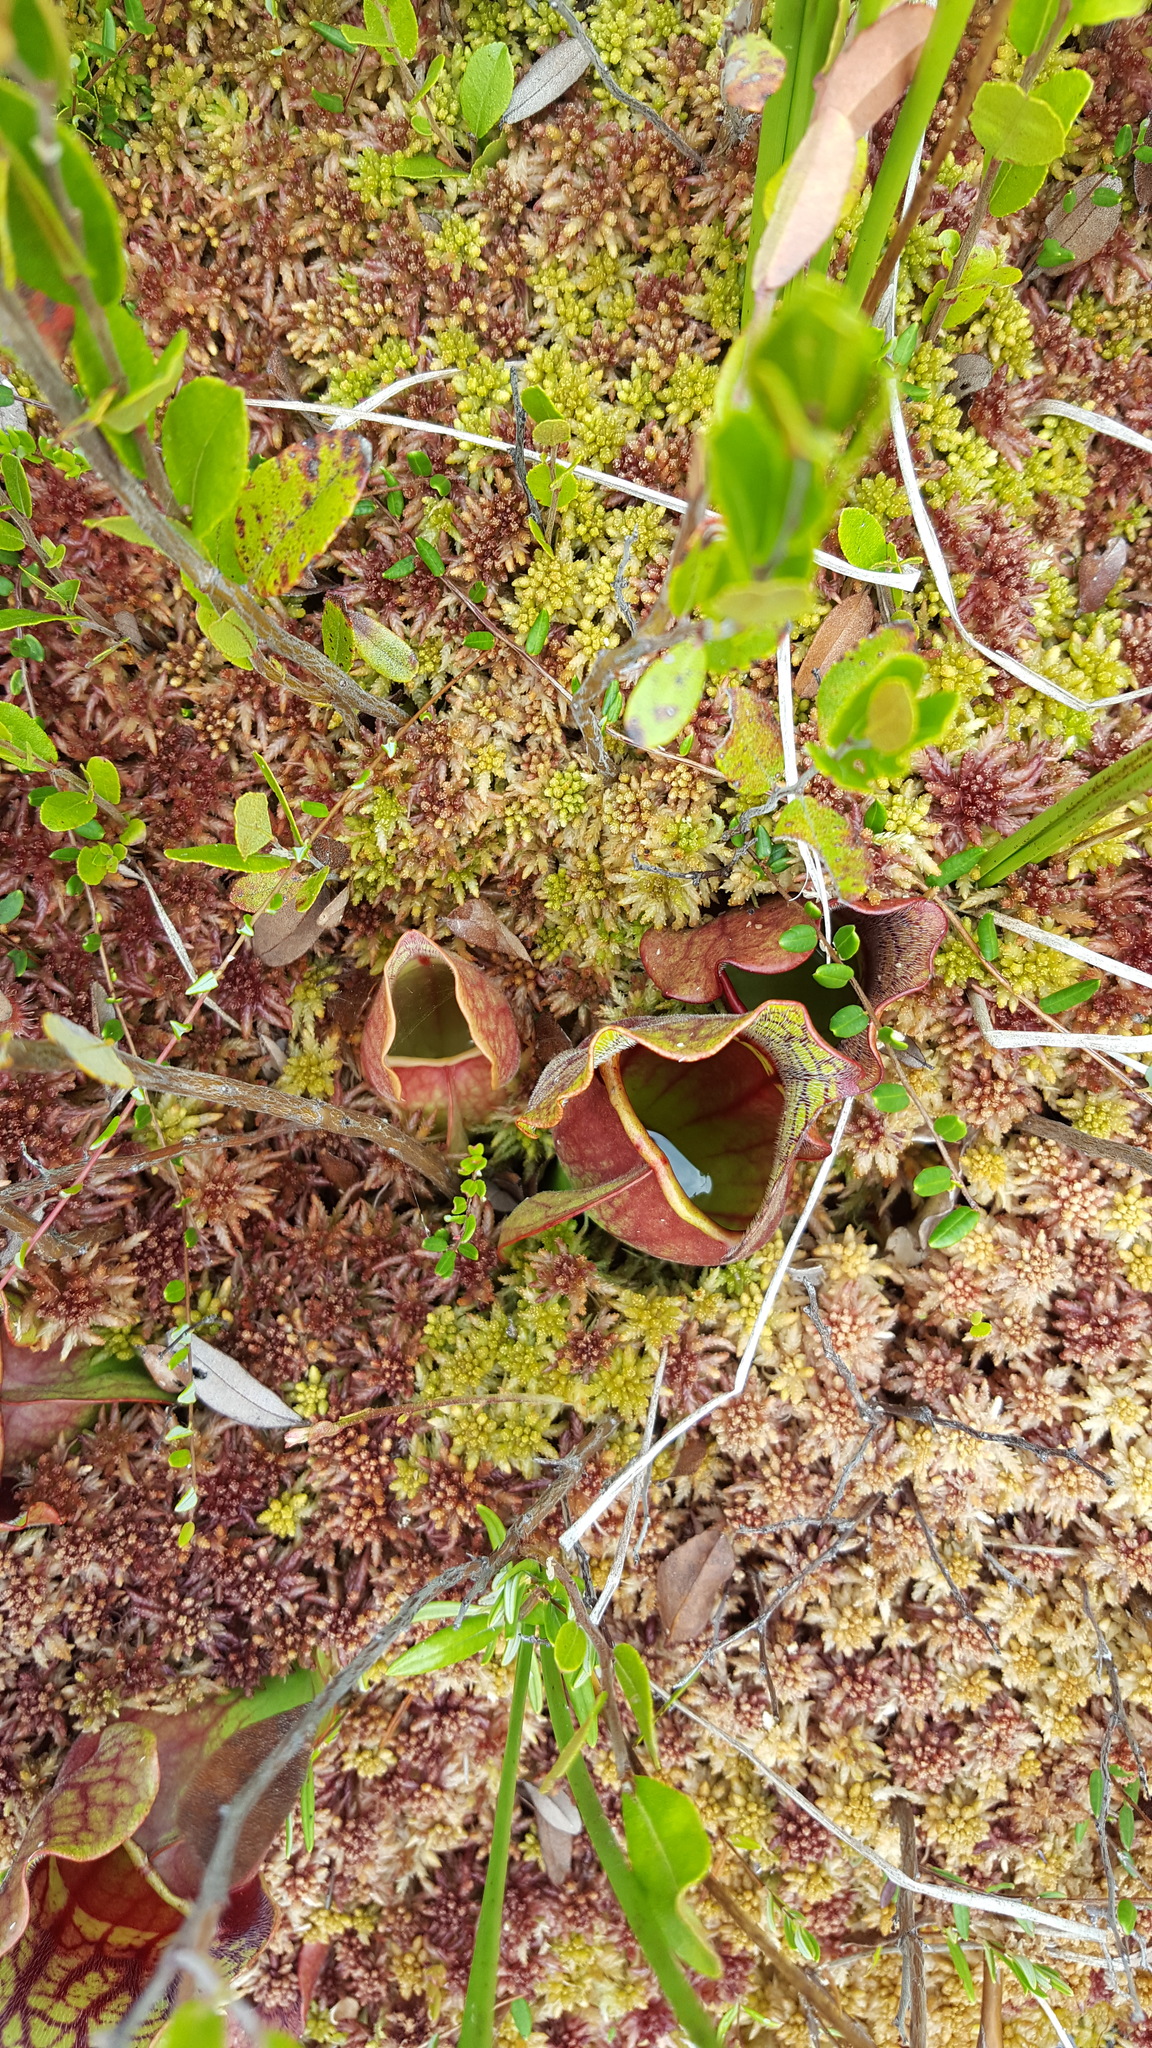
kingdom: Plantae
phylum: Tracheophyta
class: Magnoliopsida
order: Ericales
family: Sarraceniaceae
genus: Sarracenia
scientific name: Sarracenia purpurea
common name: Pitcherplant
